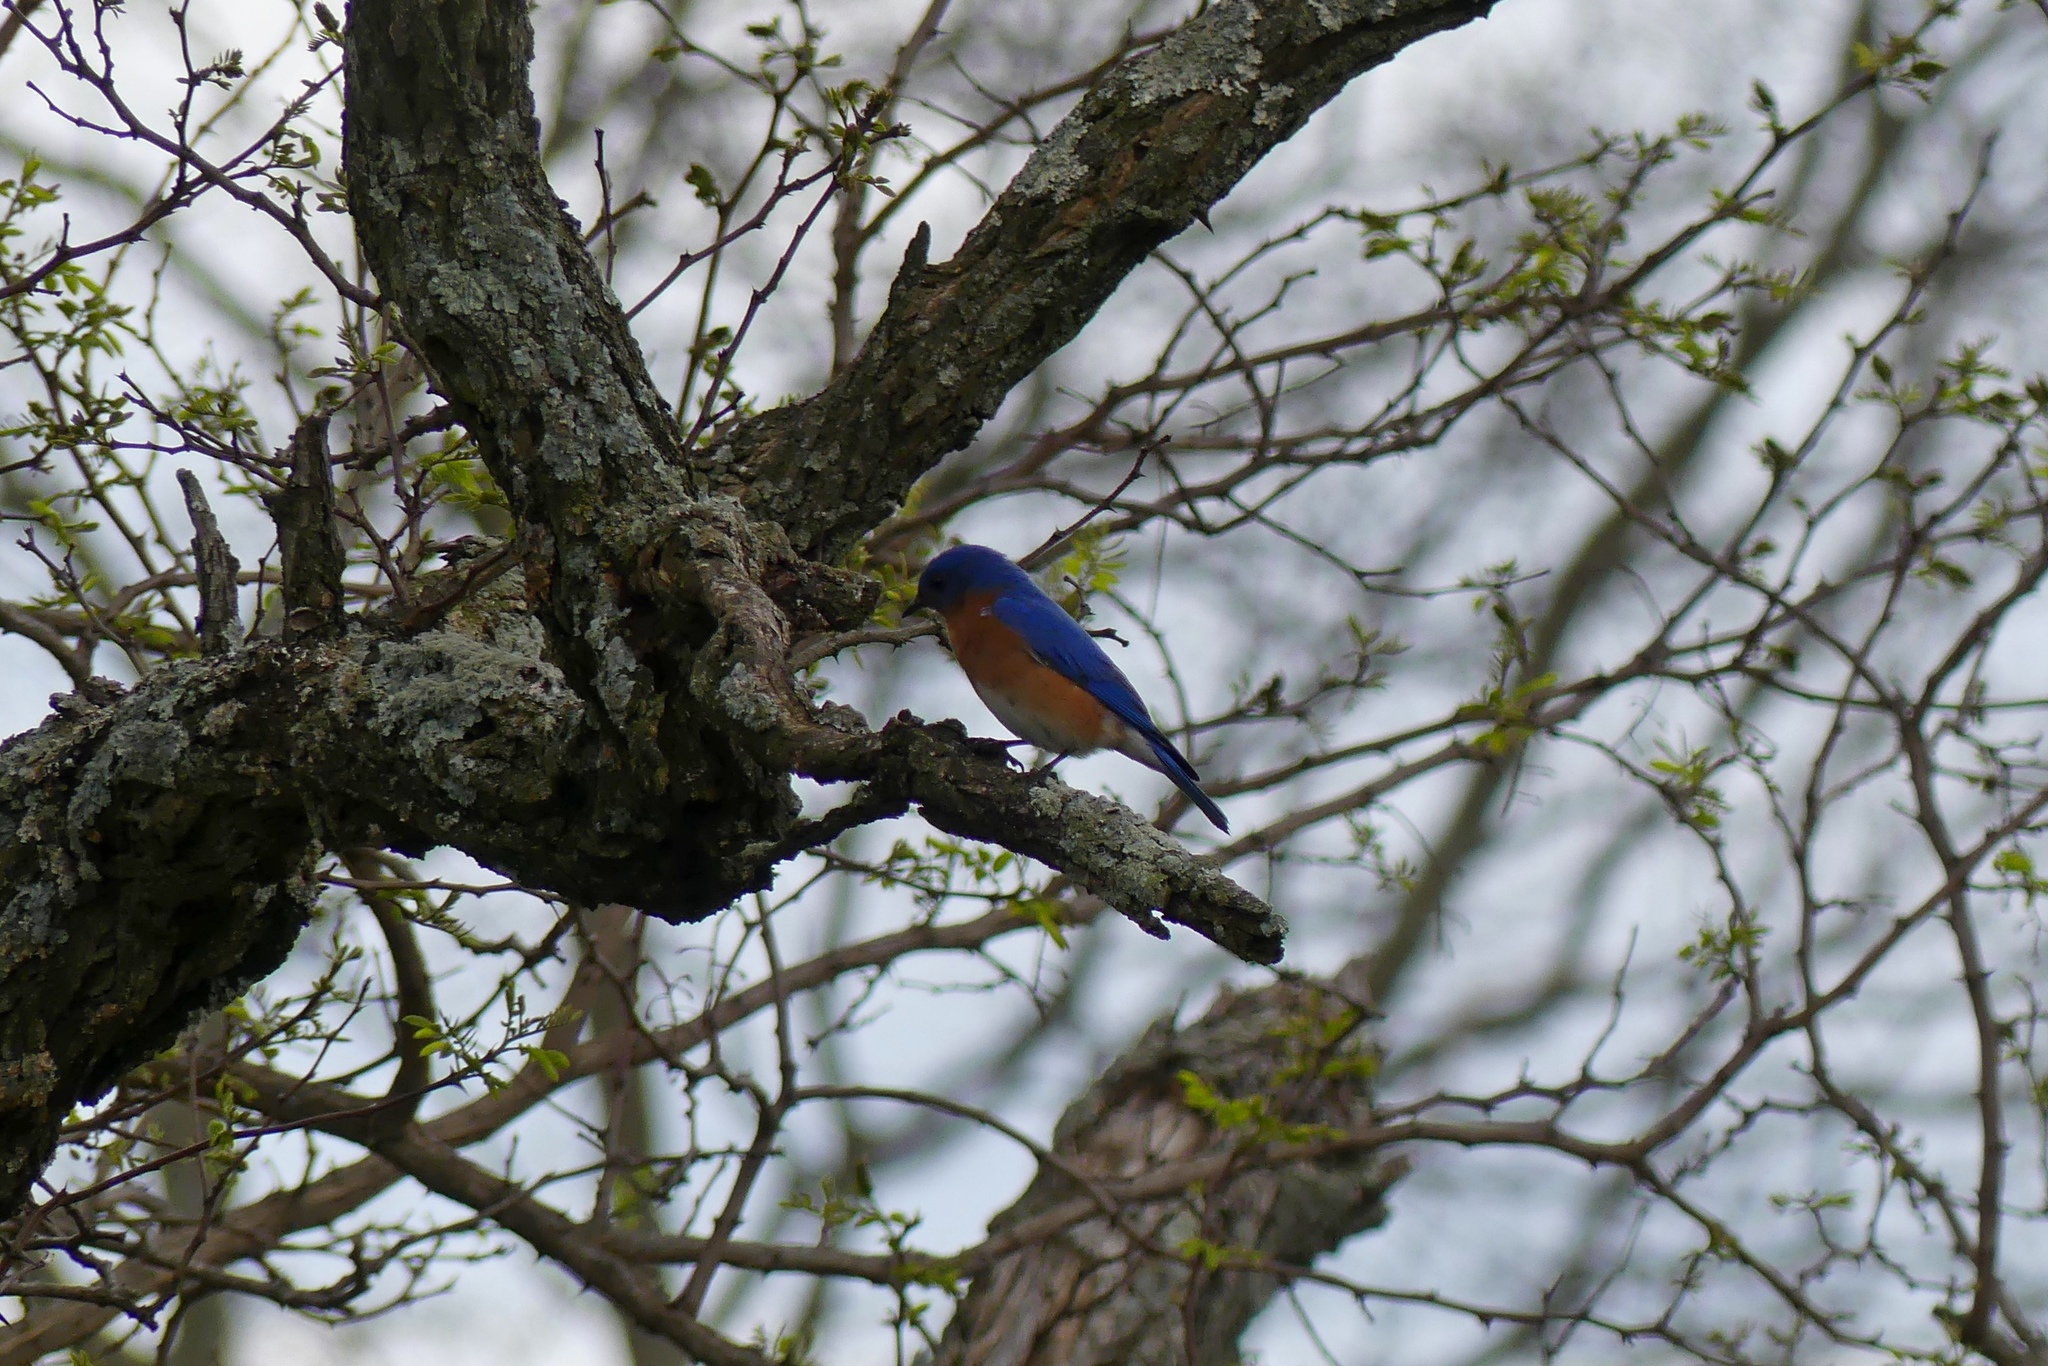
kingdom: Animalia
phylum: Chordata
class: Aves
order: Passeriformes
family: Turdidae
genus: Sialia
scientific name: Sialia sialis
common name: Eastern bluebird
